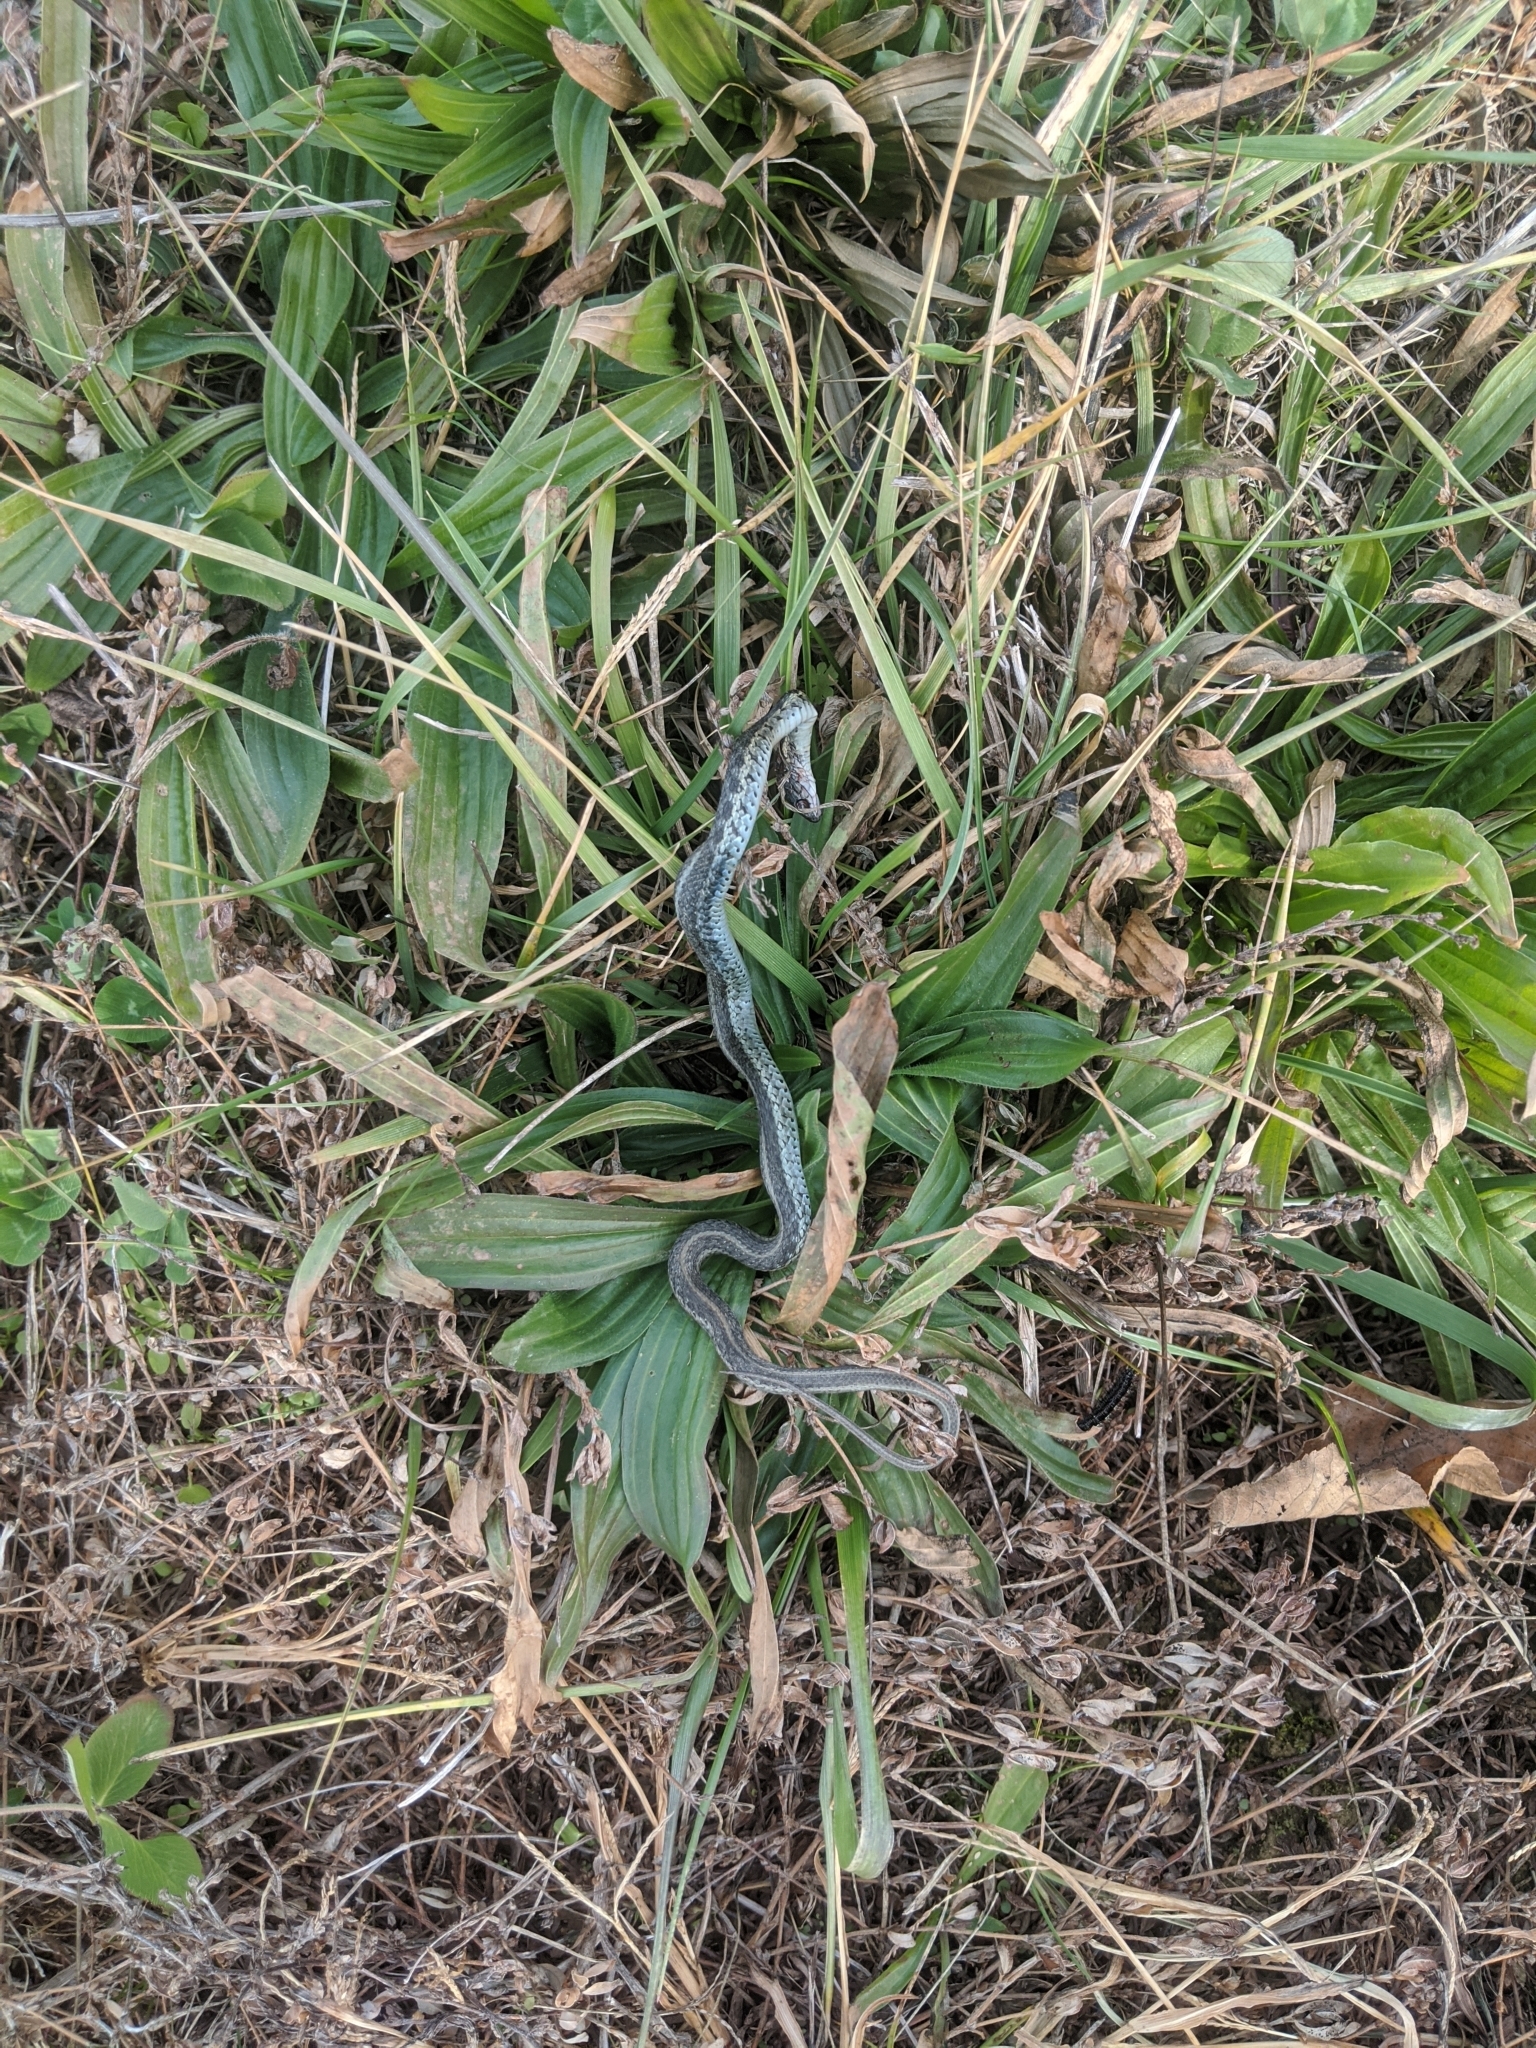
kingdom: Animalia
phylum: Chordata
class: Squamata
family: Colubridae
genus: Thamnophis
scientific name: Thamnophis sirtalis
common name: Common garter snake
